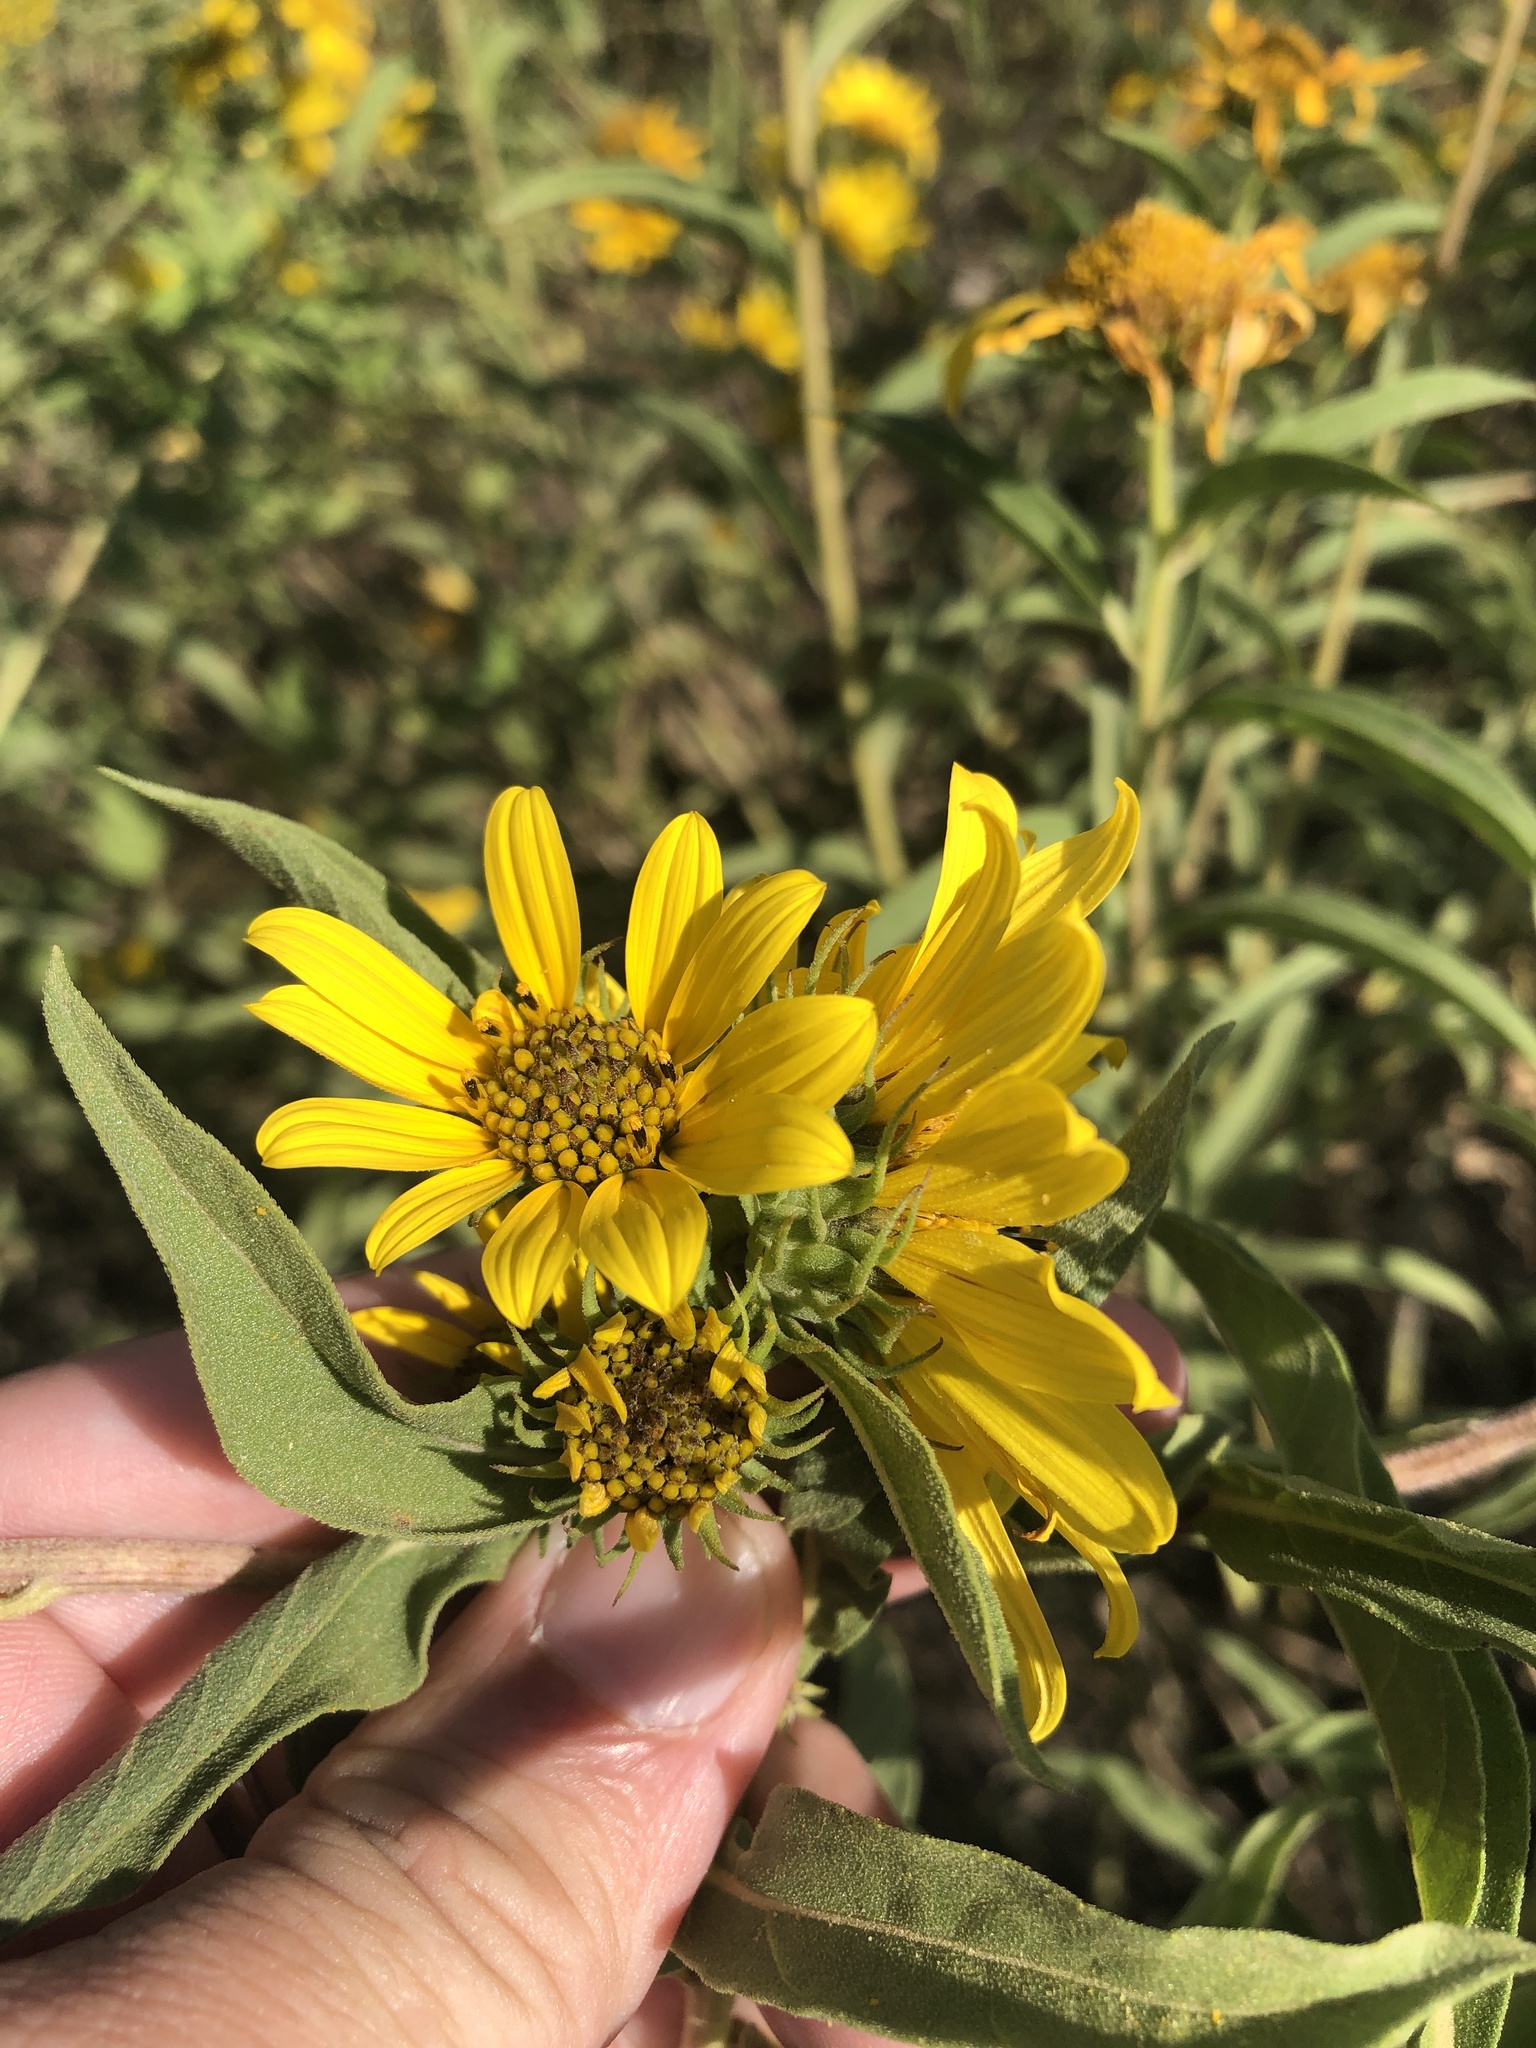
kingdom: Plantae
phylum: Tracheophyta
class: Magnoliopsida
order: Asterales
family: Asteraceae
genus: Helianthus
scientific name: Helianthus maximiliani
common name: Maximilian's sunflower
